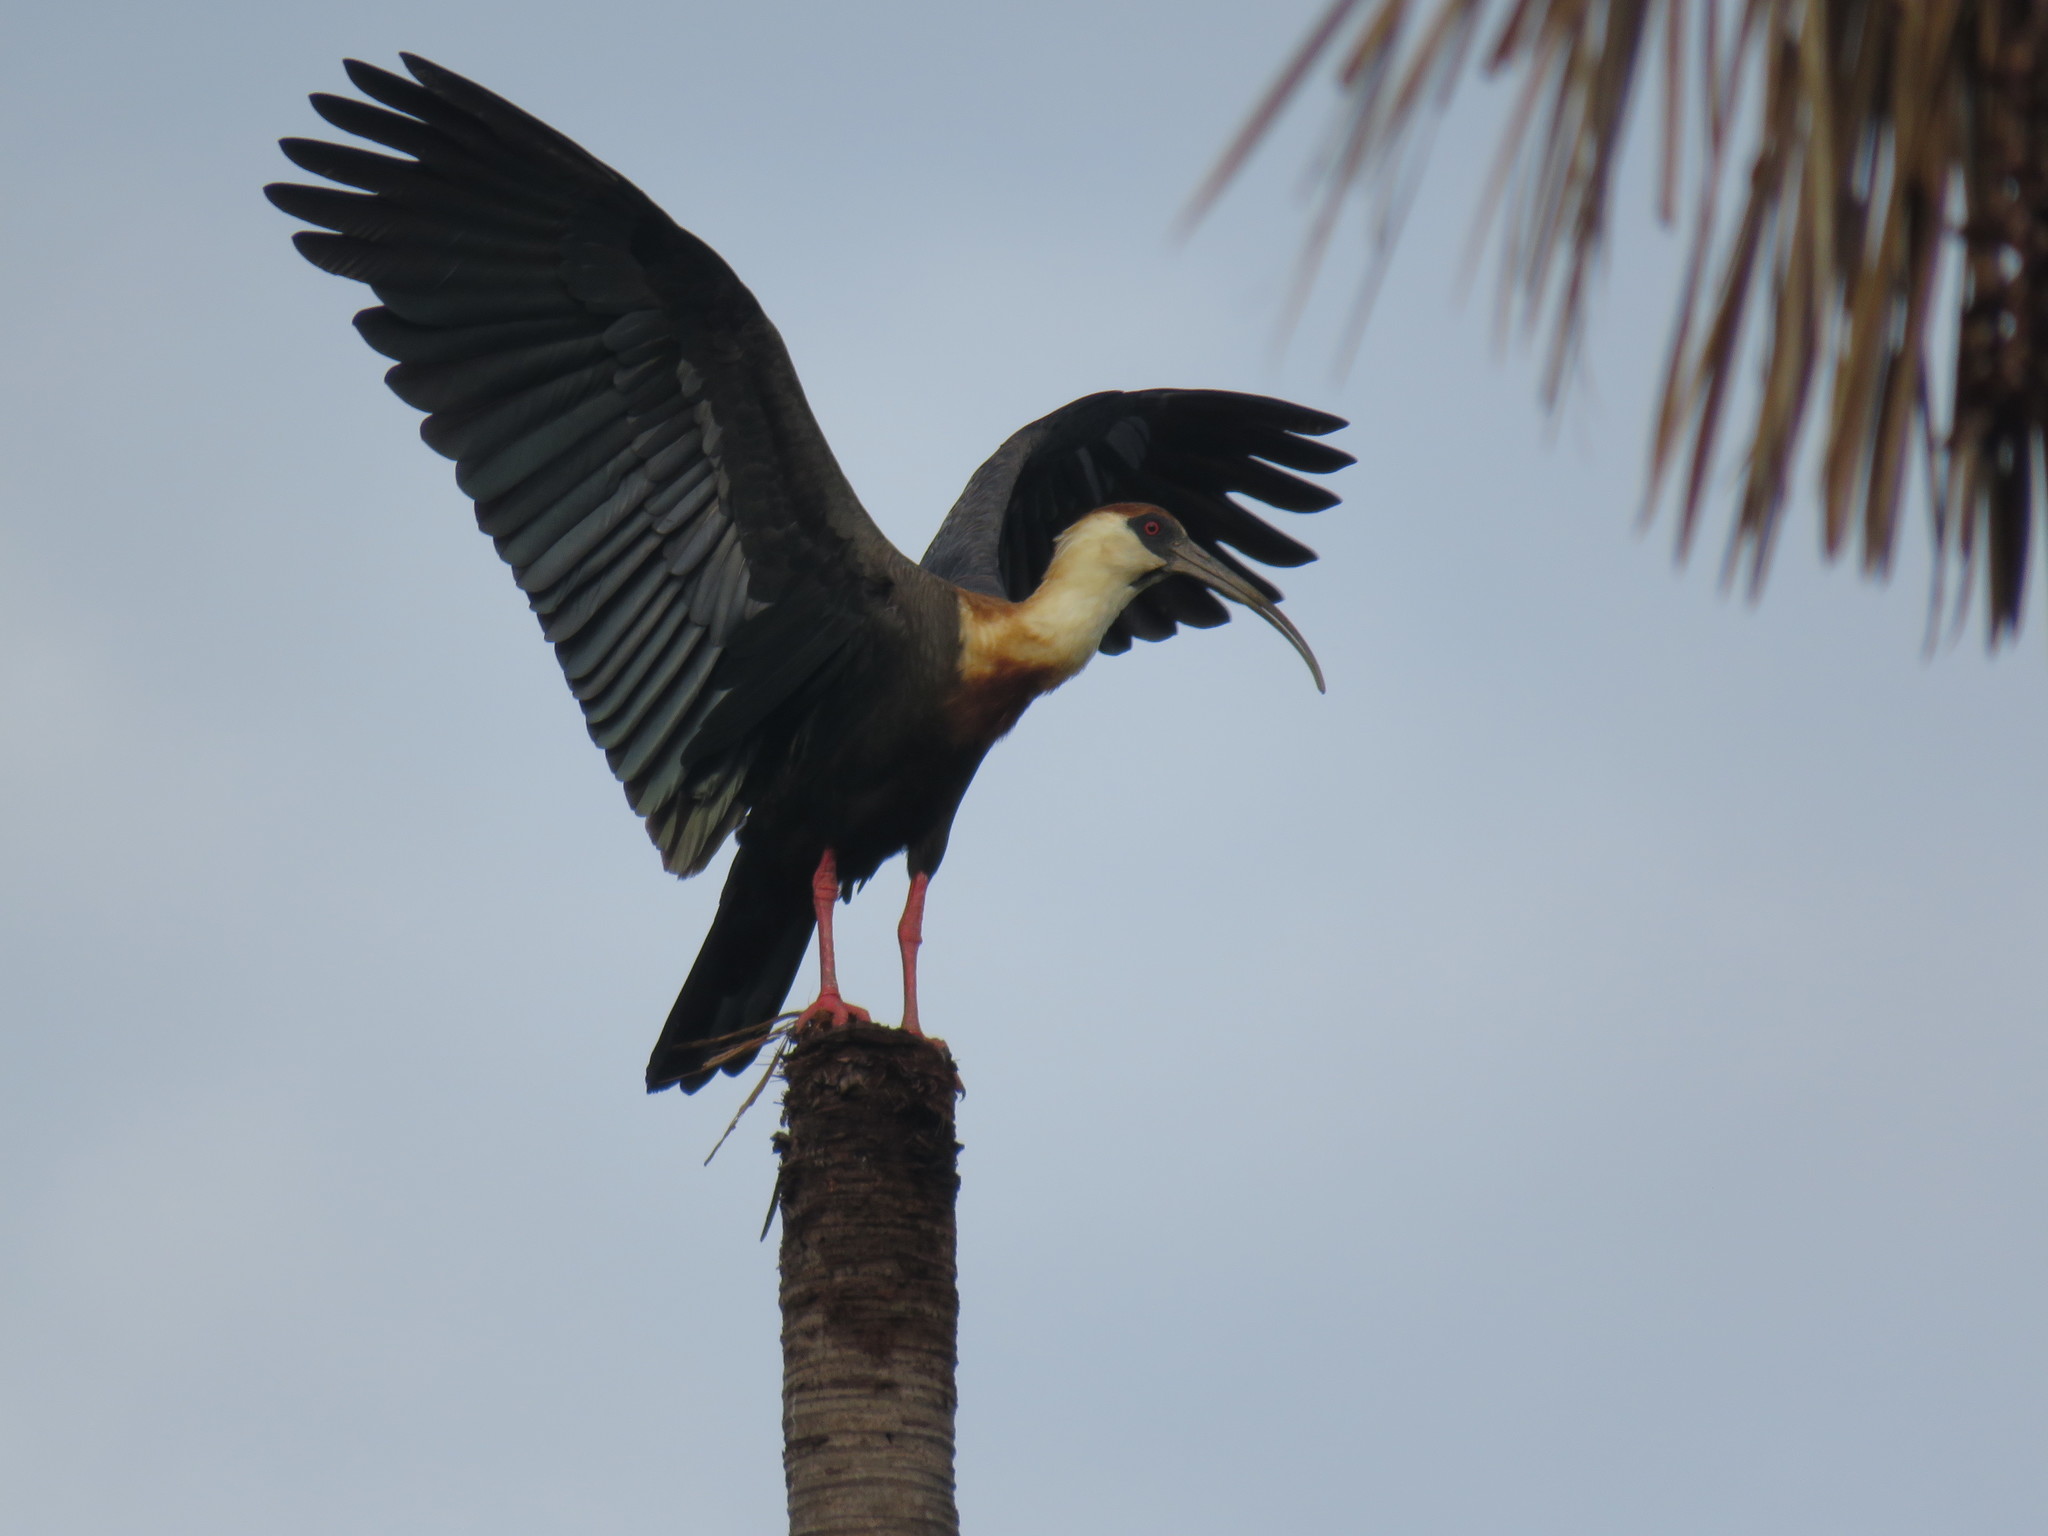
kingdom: Animalia
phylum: Chordata
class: Aves
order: Pelecaniformes
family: Threskiornithidae
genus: Theristicus
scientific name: Theristicus caudatus
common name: Buff-necked ibis
